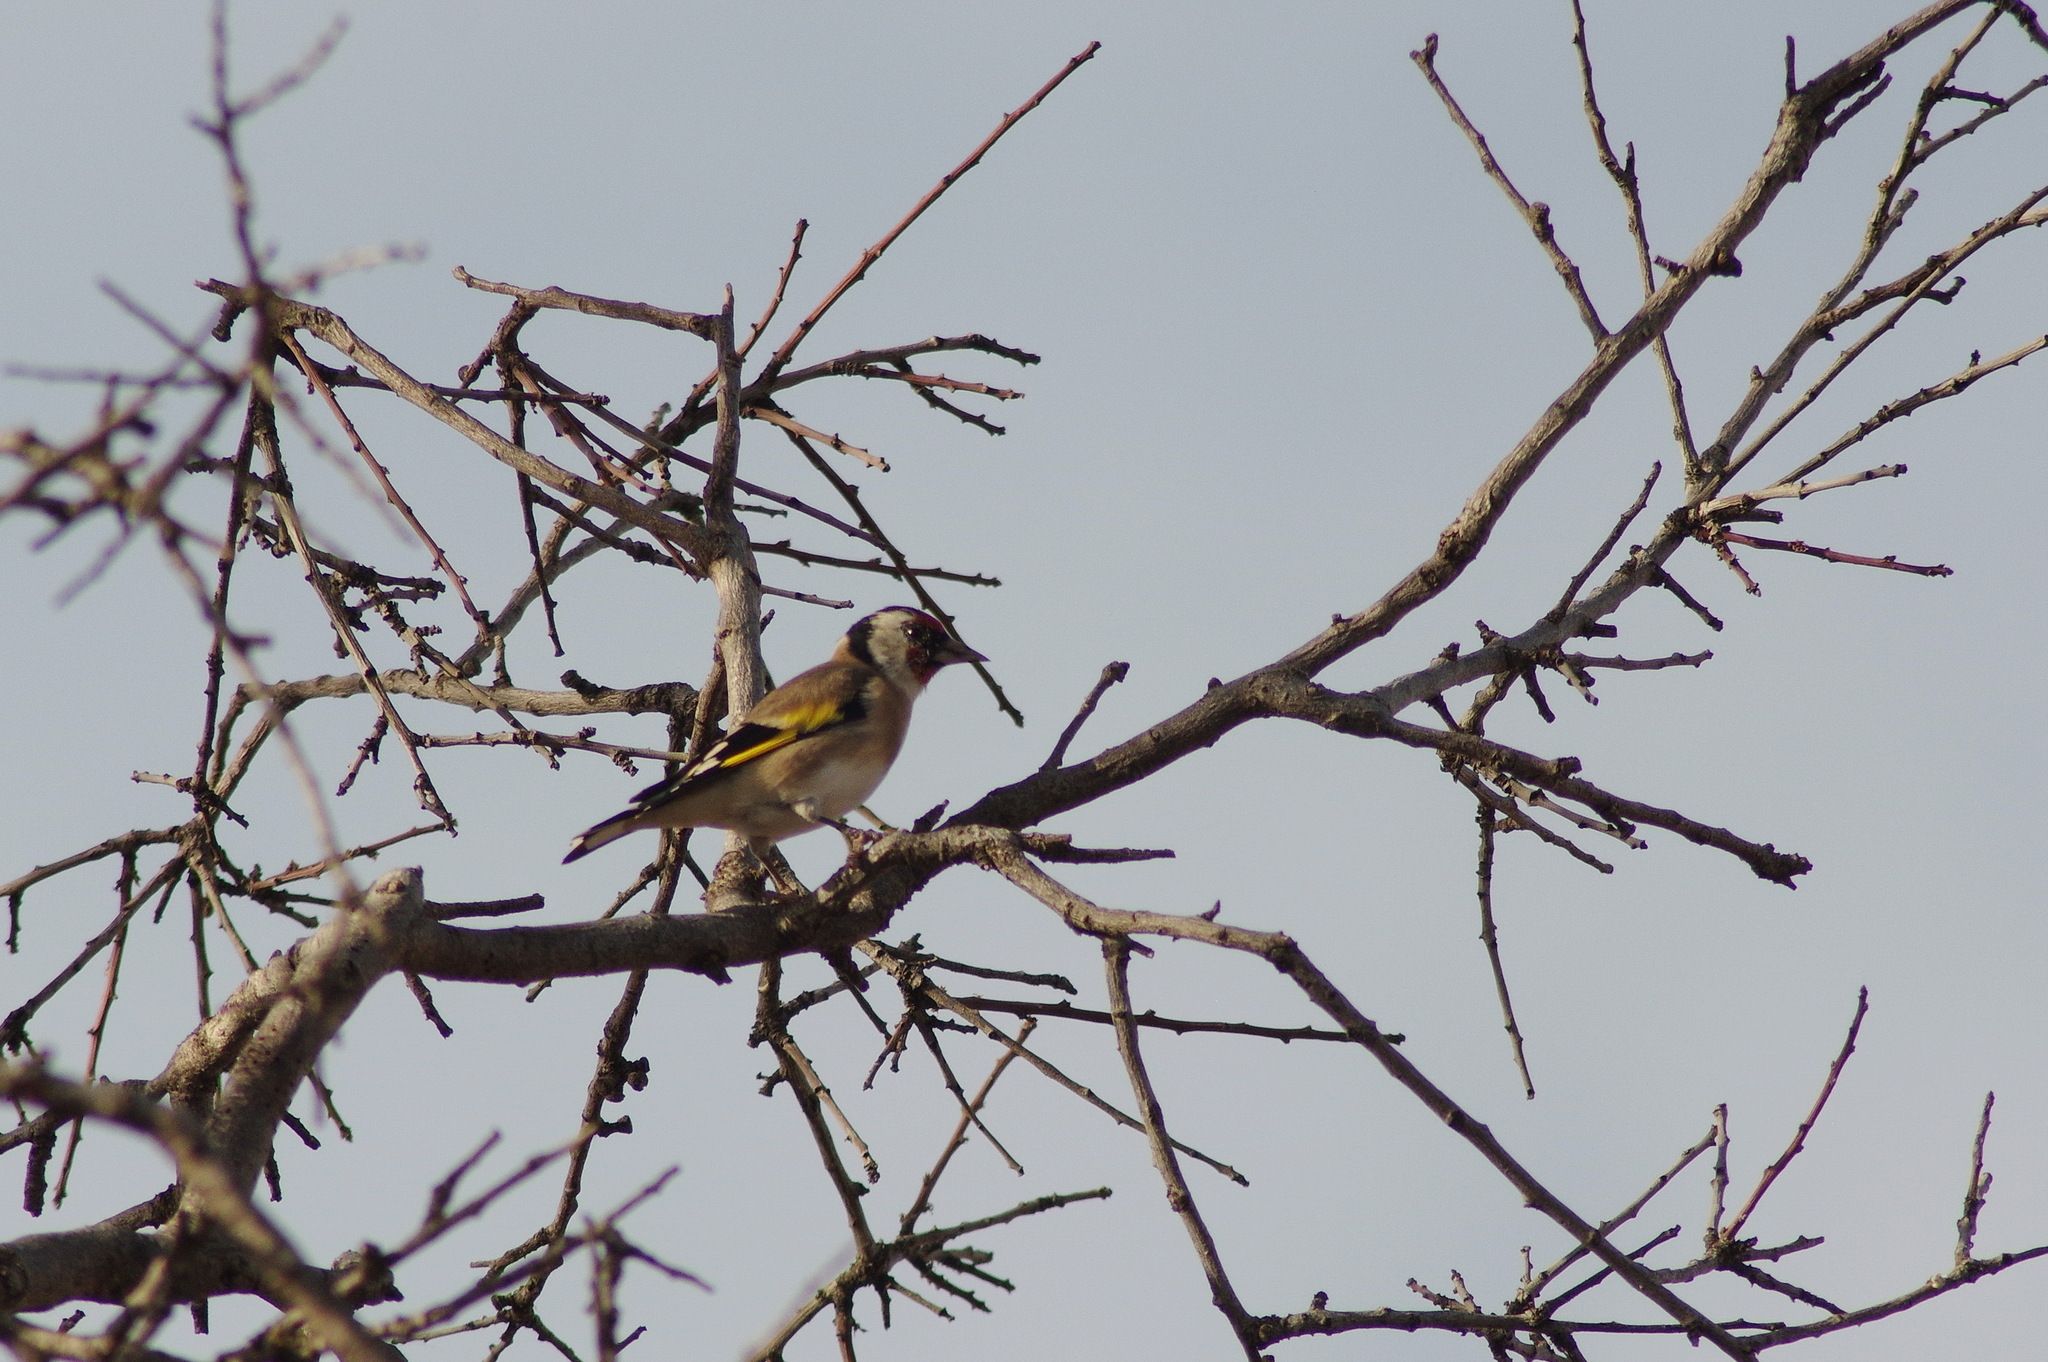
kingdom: Animalia
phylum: Chordata
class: Aves
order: Passeriformes
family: Fringillidae
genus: Carduelis
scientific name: Carduelis carduelis
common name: European goldfinch
